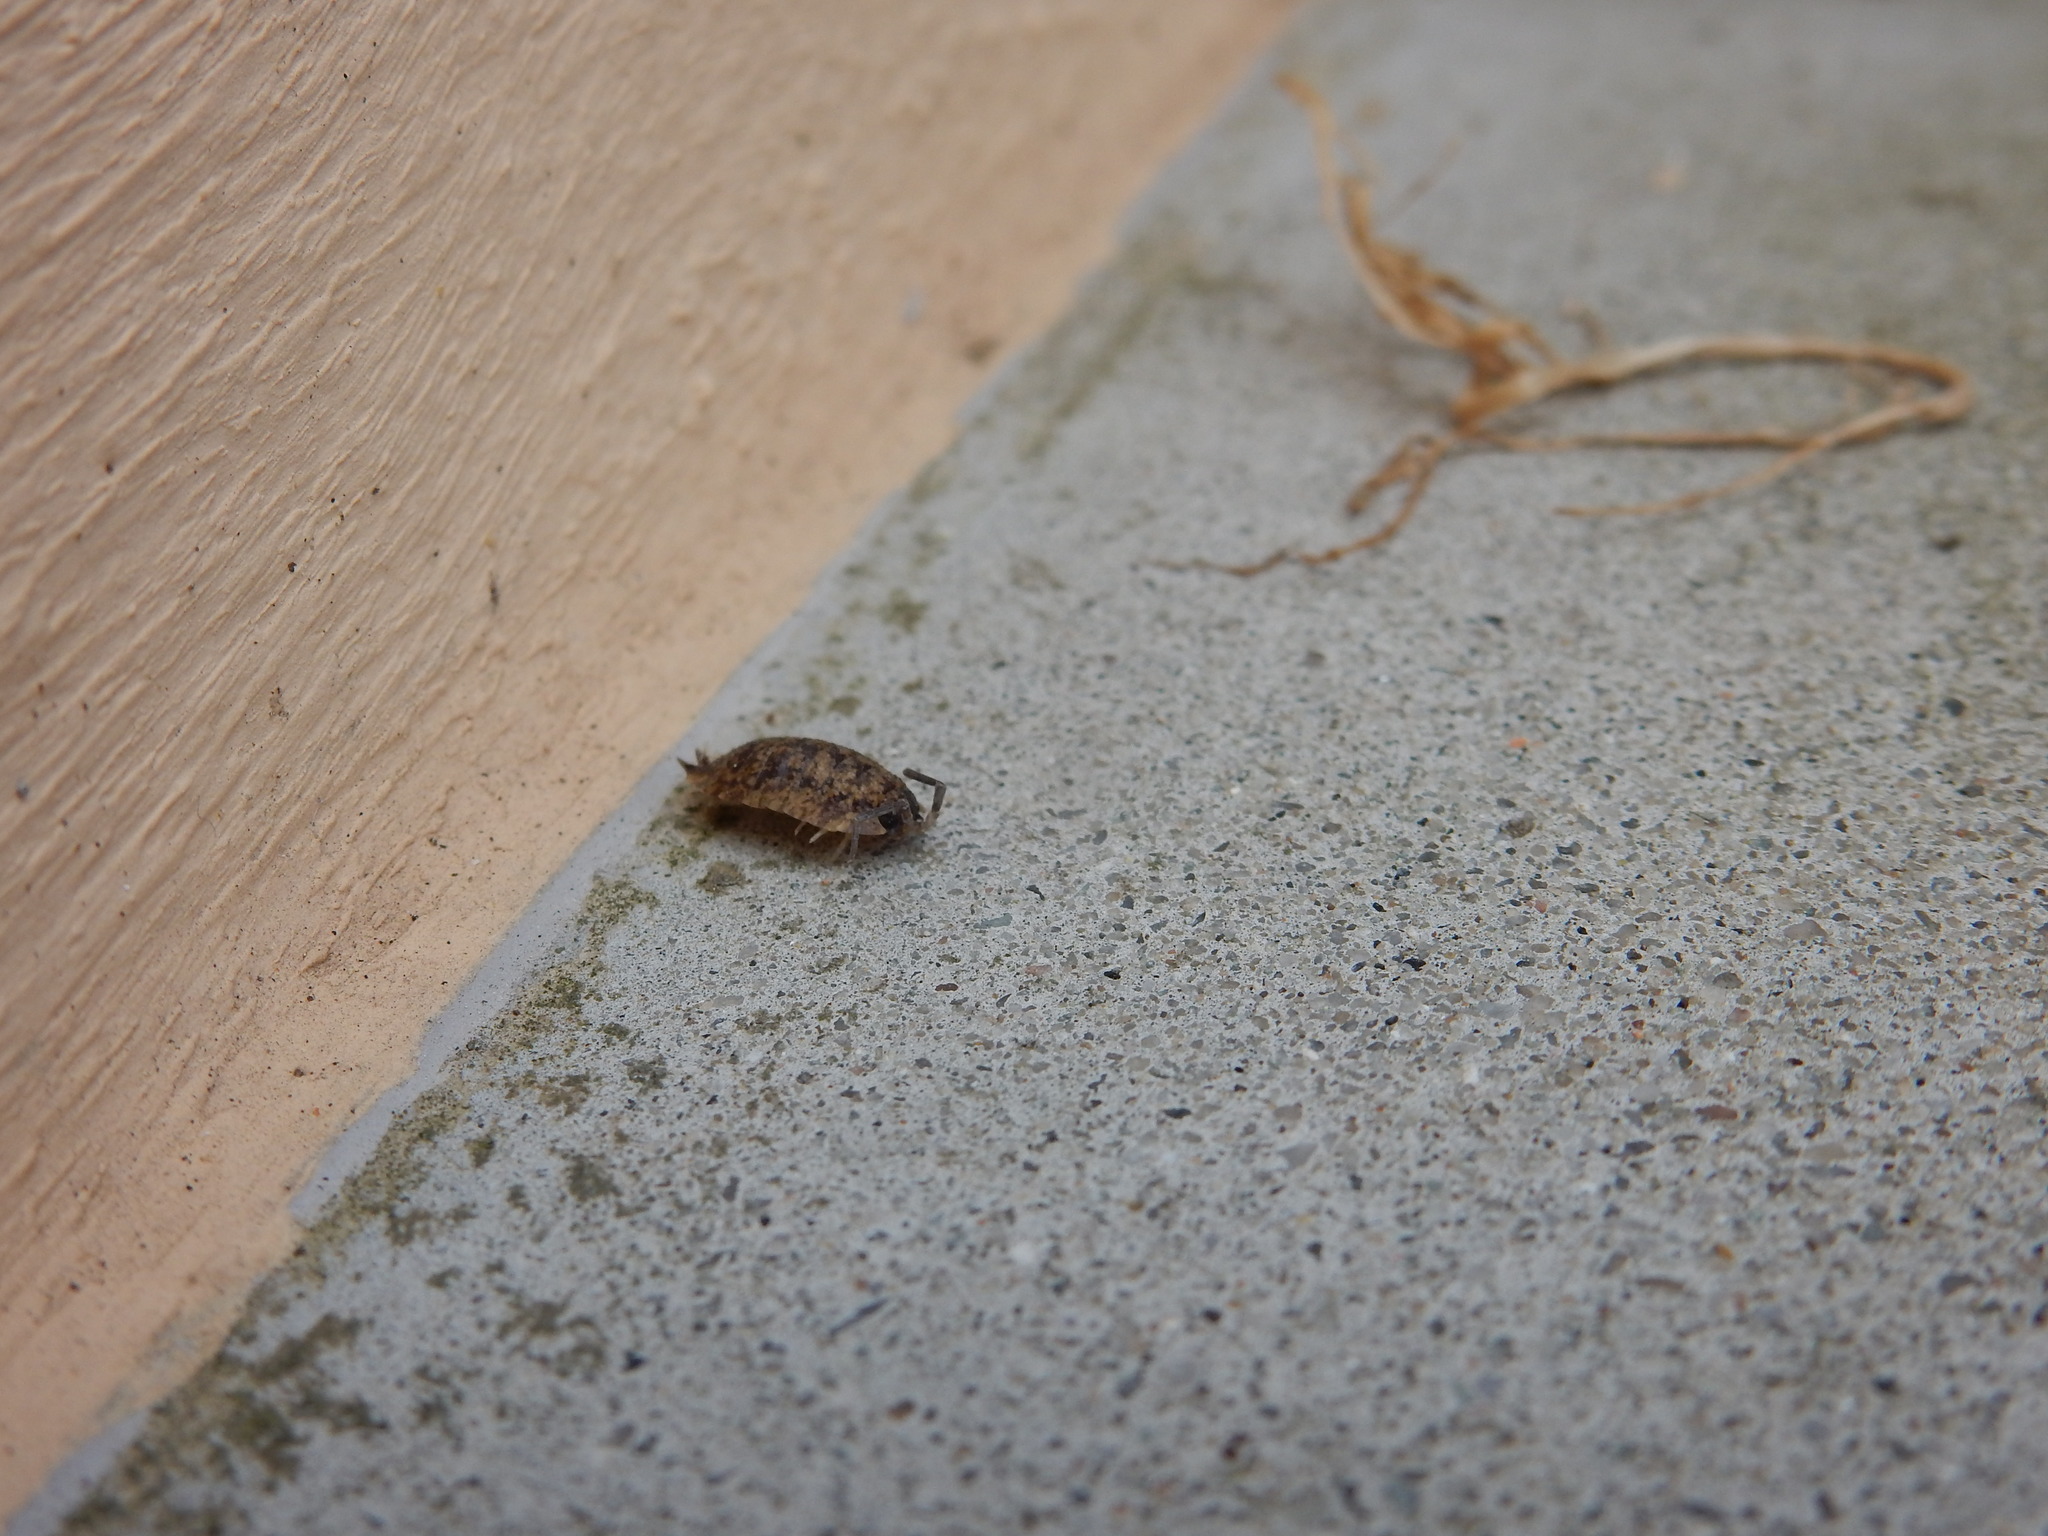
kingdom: Animalia
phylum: Arthropoda
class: Malacostraca
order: Isopoda
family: Porcellionidae
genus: Porcellio
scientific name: Porcellio scaber
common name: Common rough woodlouse
